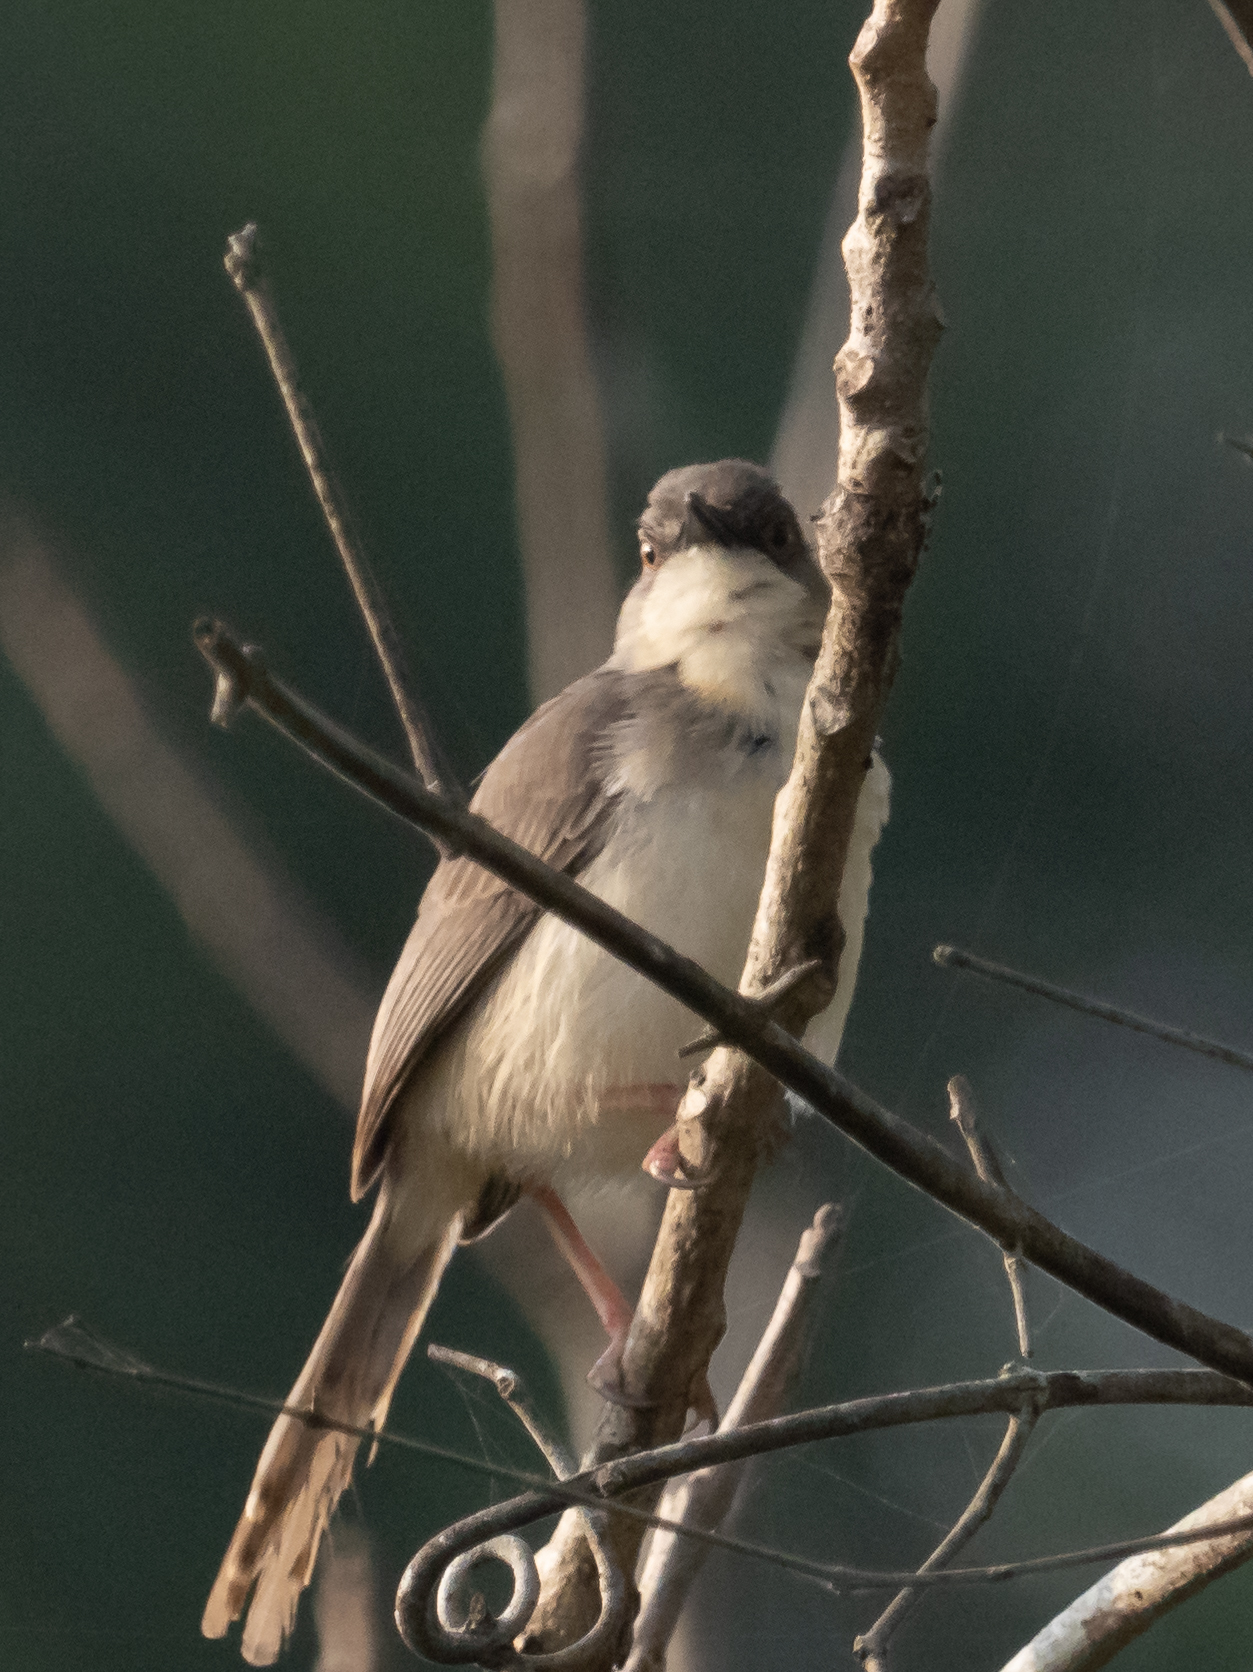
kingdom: Animalia
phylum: Chordata
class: Aves
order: Passeriformes
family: Cisticolidae
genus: Prinia
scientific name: Prinia hodgsonii
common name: Grey-breasted prinia
